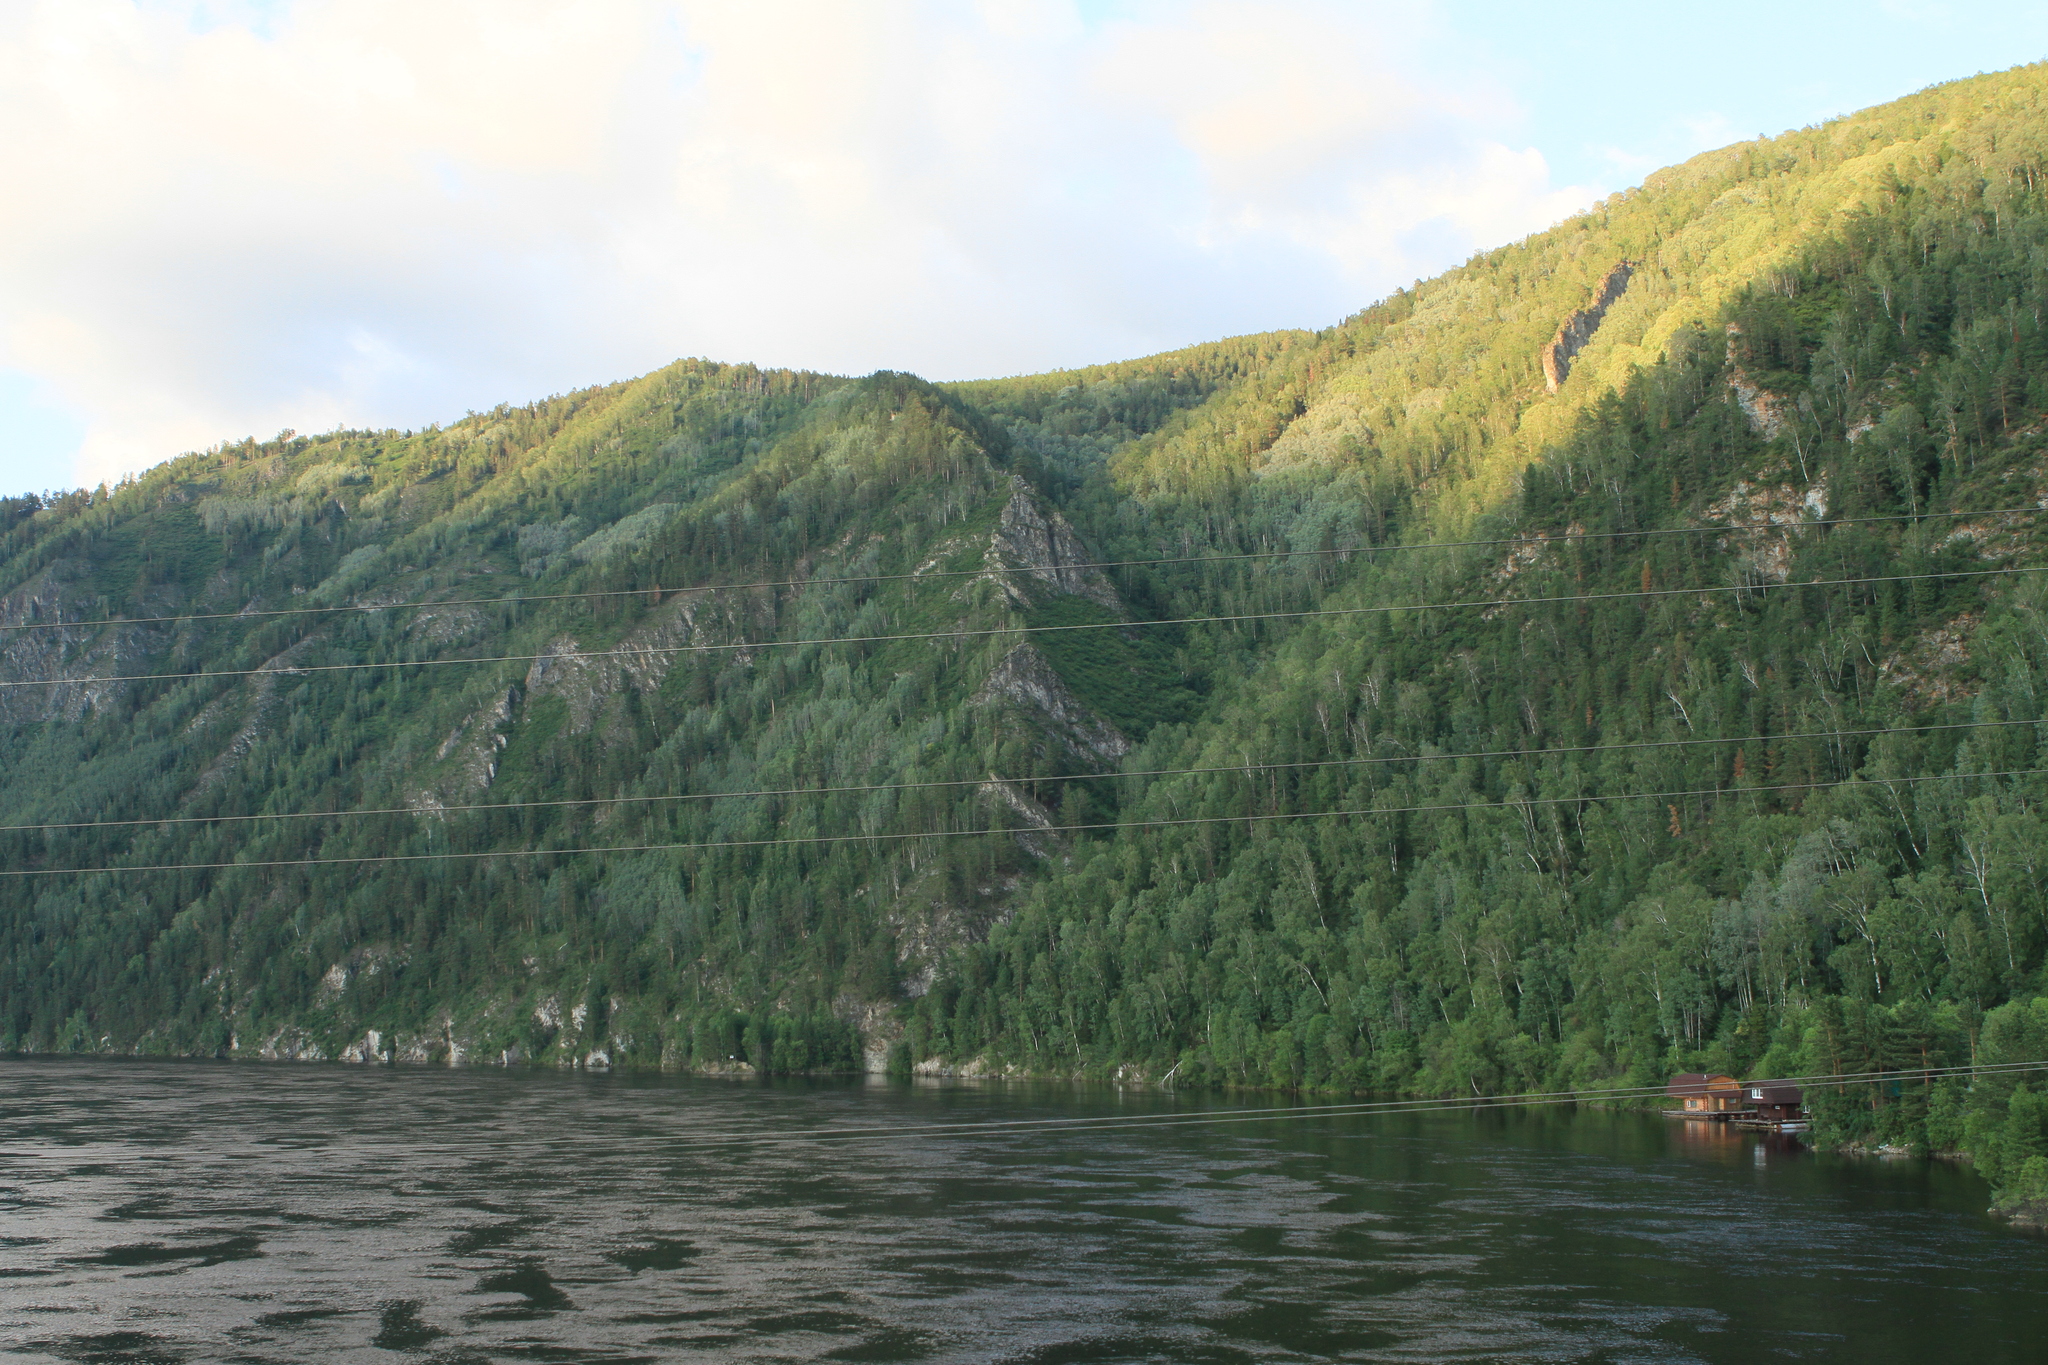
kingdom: Plantae
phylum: Tracheophyta
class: Pinopsida
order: Pinales
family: Pinaceae
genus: Pinus
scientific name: Pinus sylvestris
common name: Scots pine
